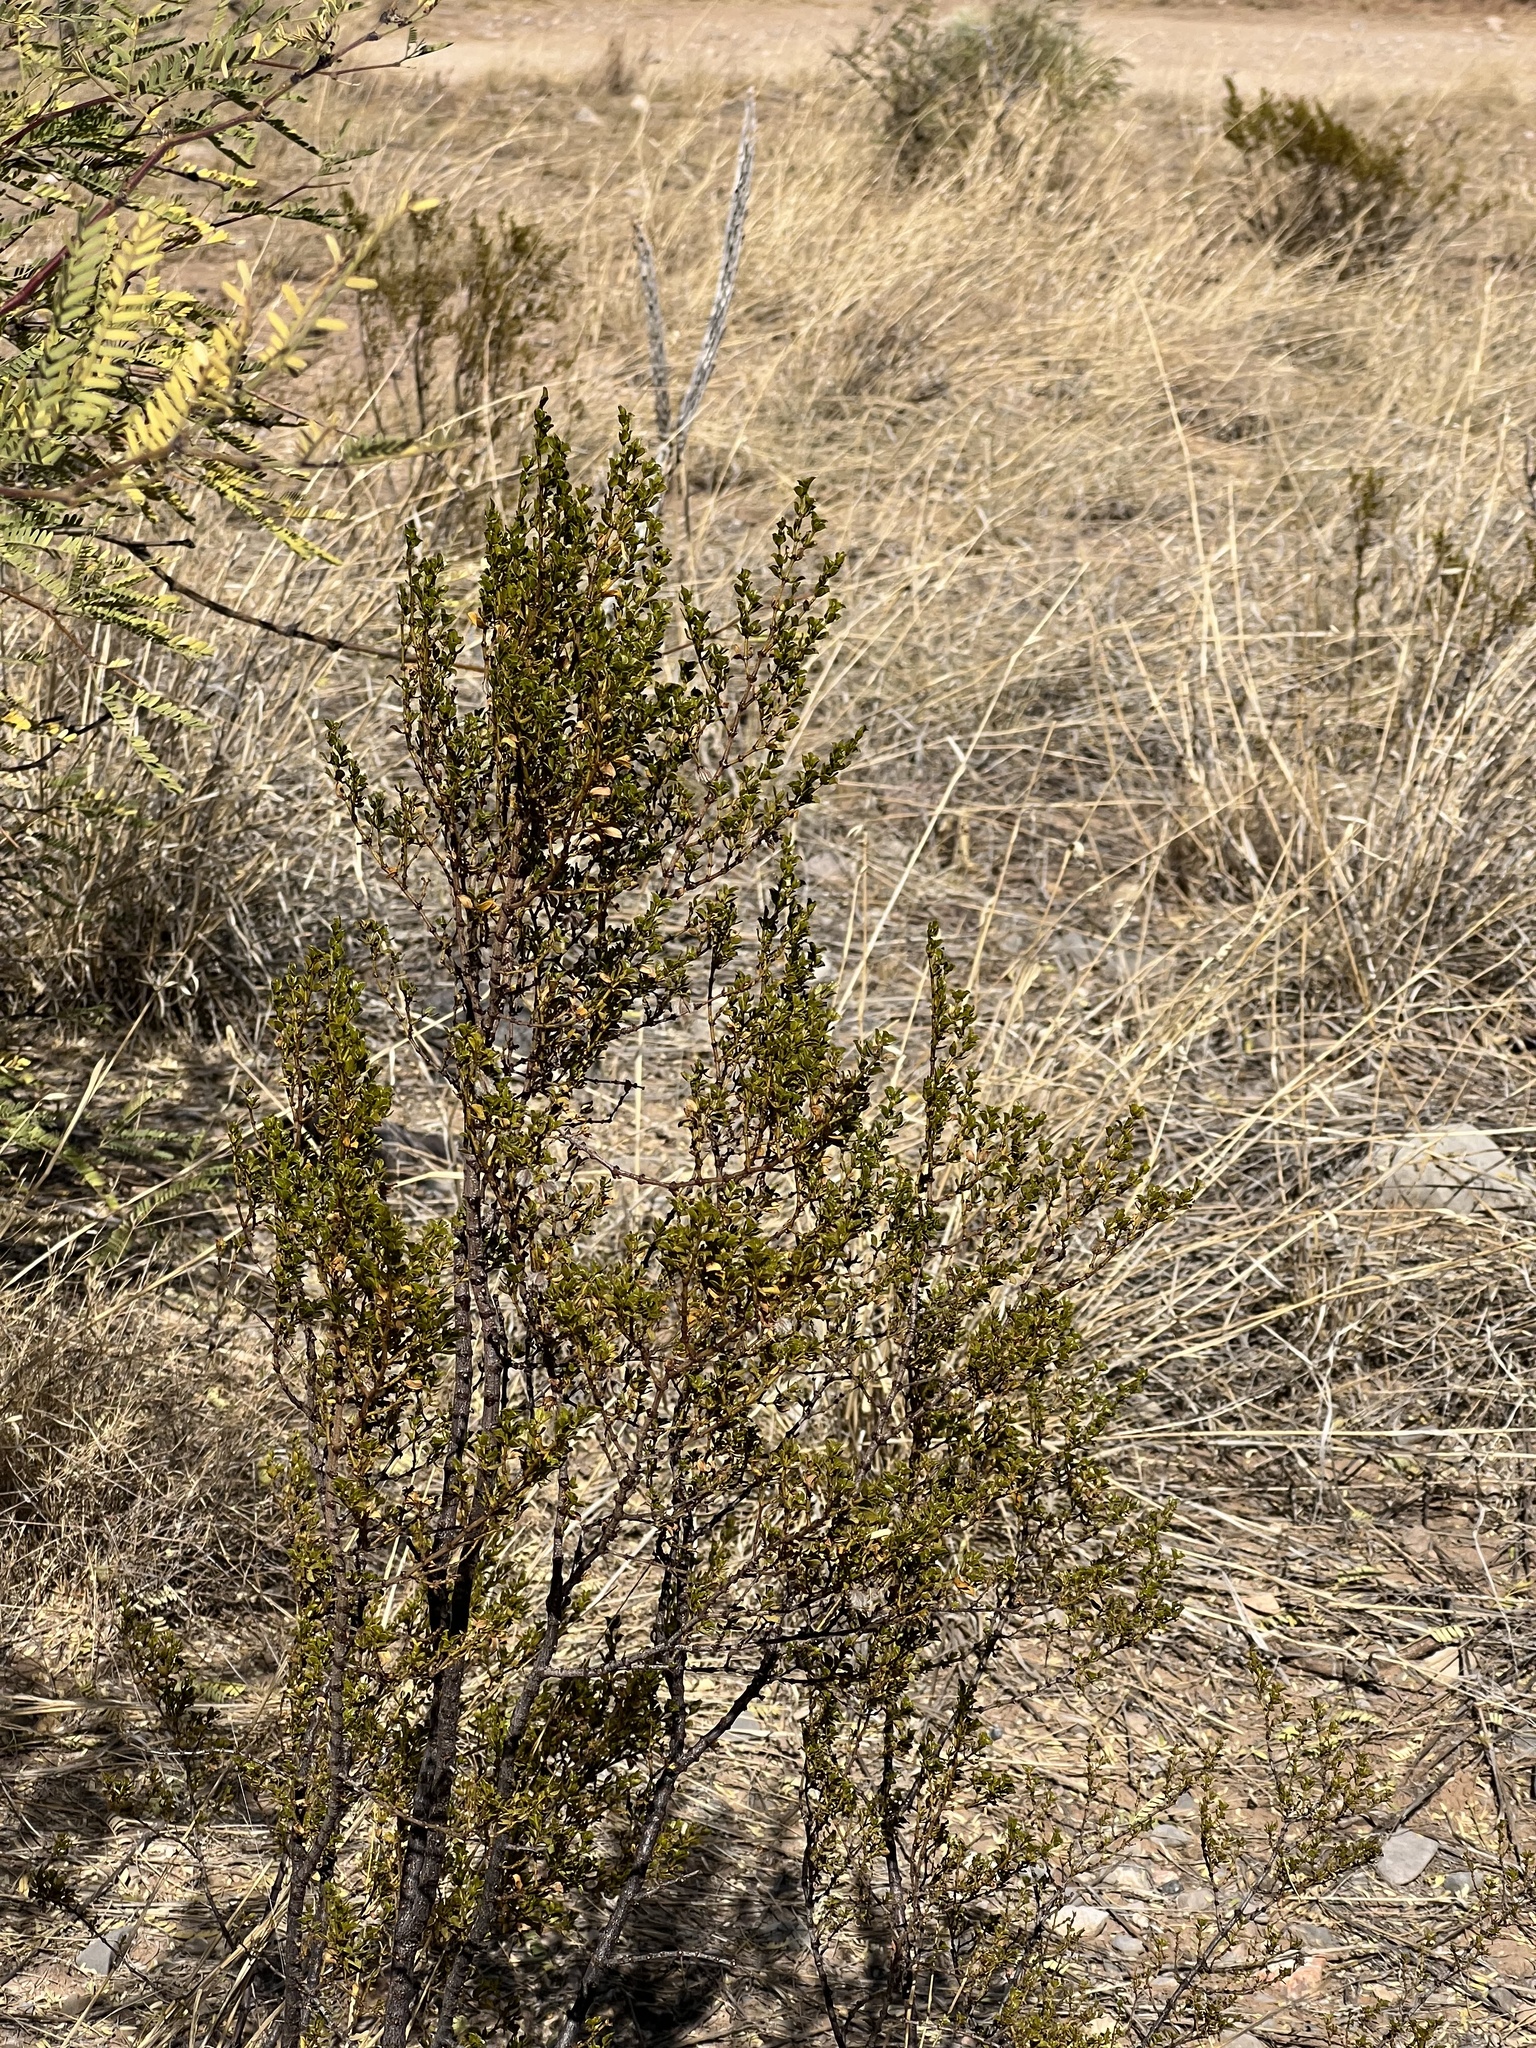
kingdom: Plantae
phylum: Tracheophyta
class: Magnoliopsida
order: Zygophyllales
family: Zygophyllaceae
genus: Larrea
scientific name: Larrea tridentata
